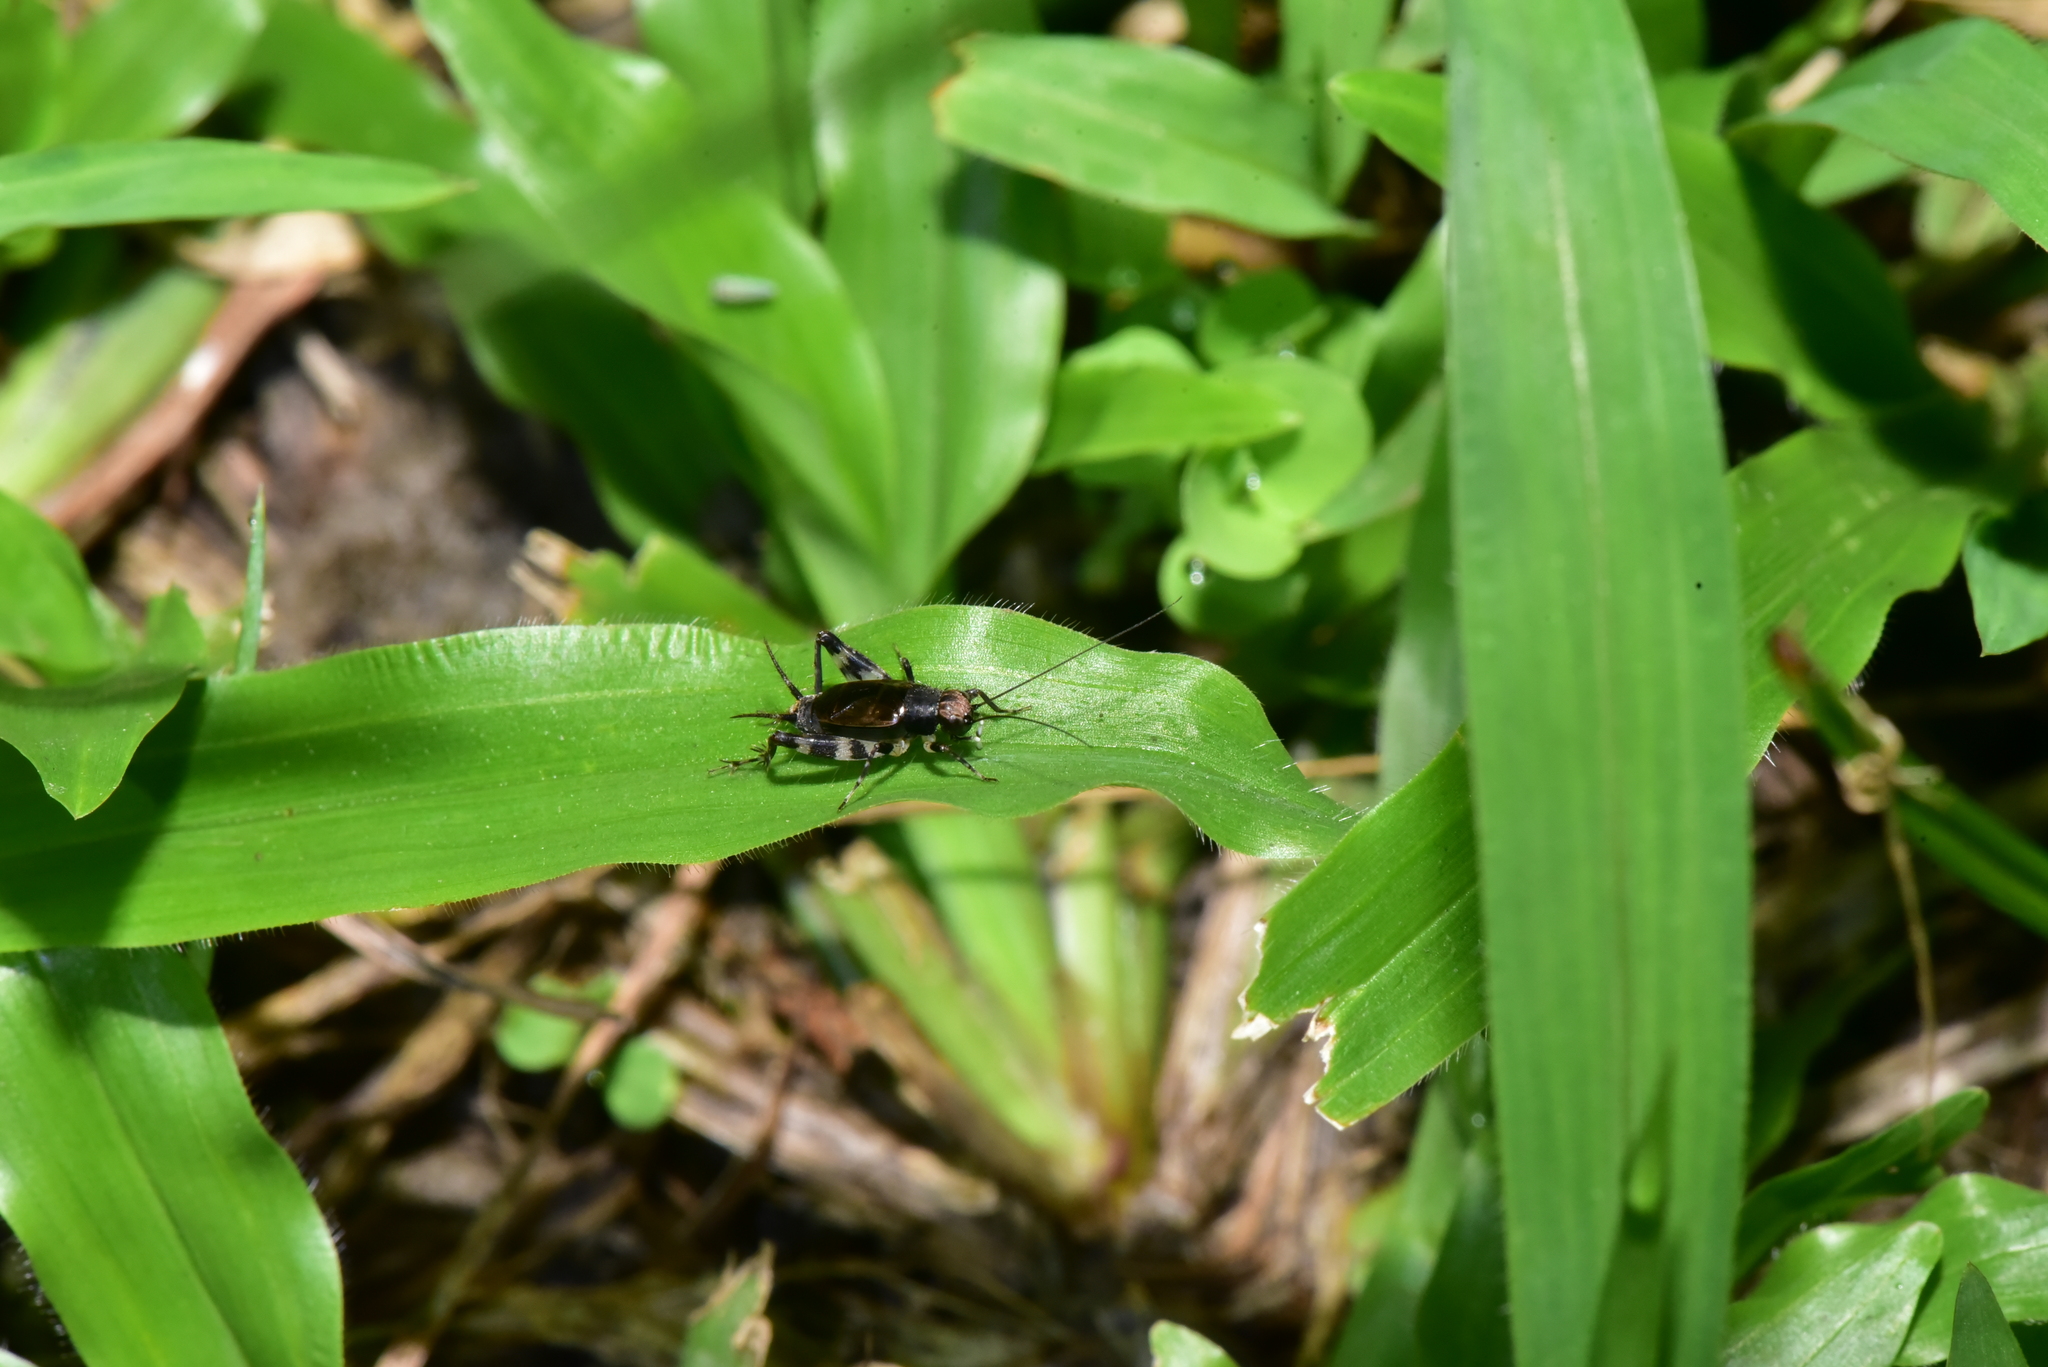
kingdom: Animalia
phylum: Arthropoda
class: Insecta
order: Orthoptera
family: Trigonidiidae
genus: Dianemobius
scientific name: Dianemobius fascipes
